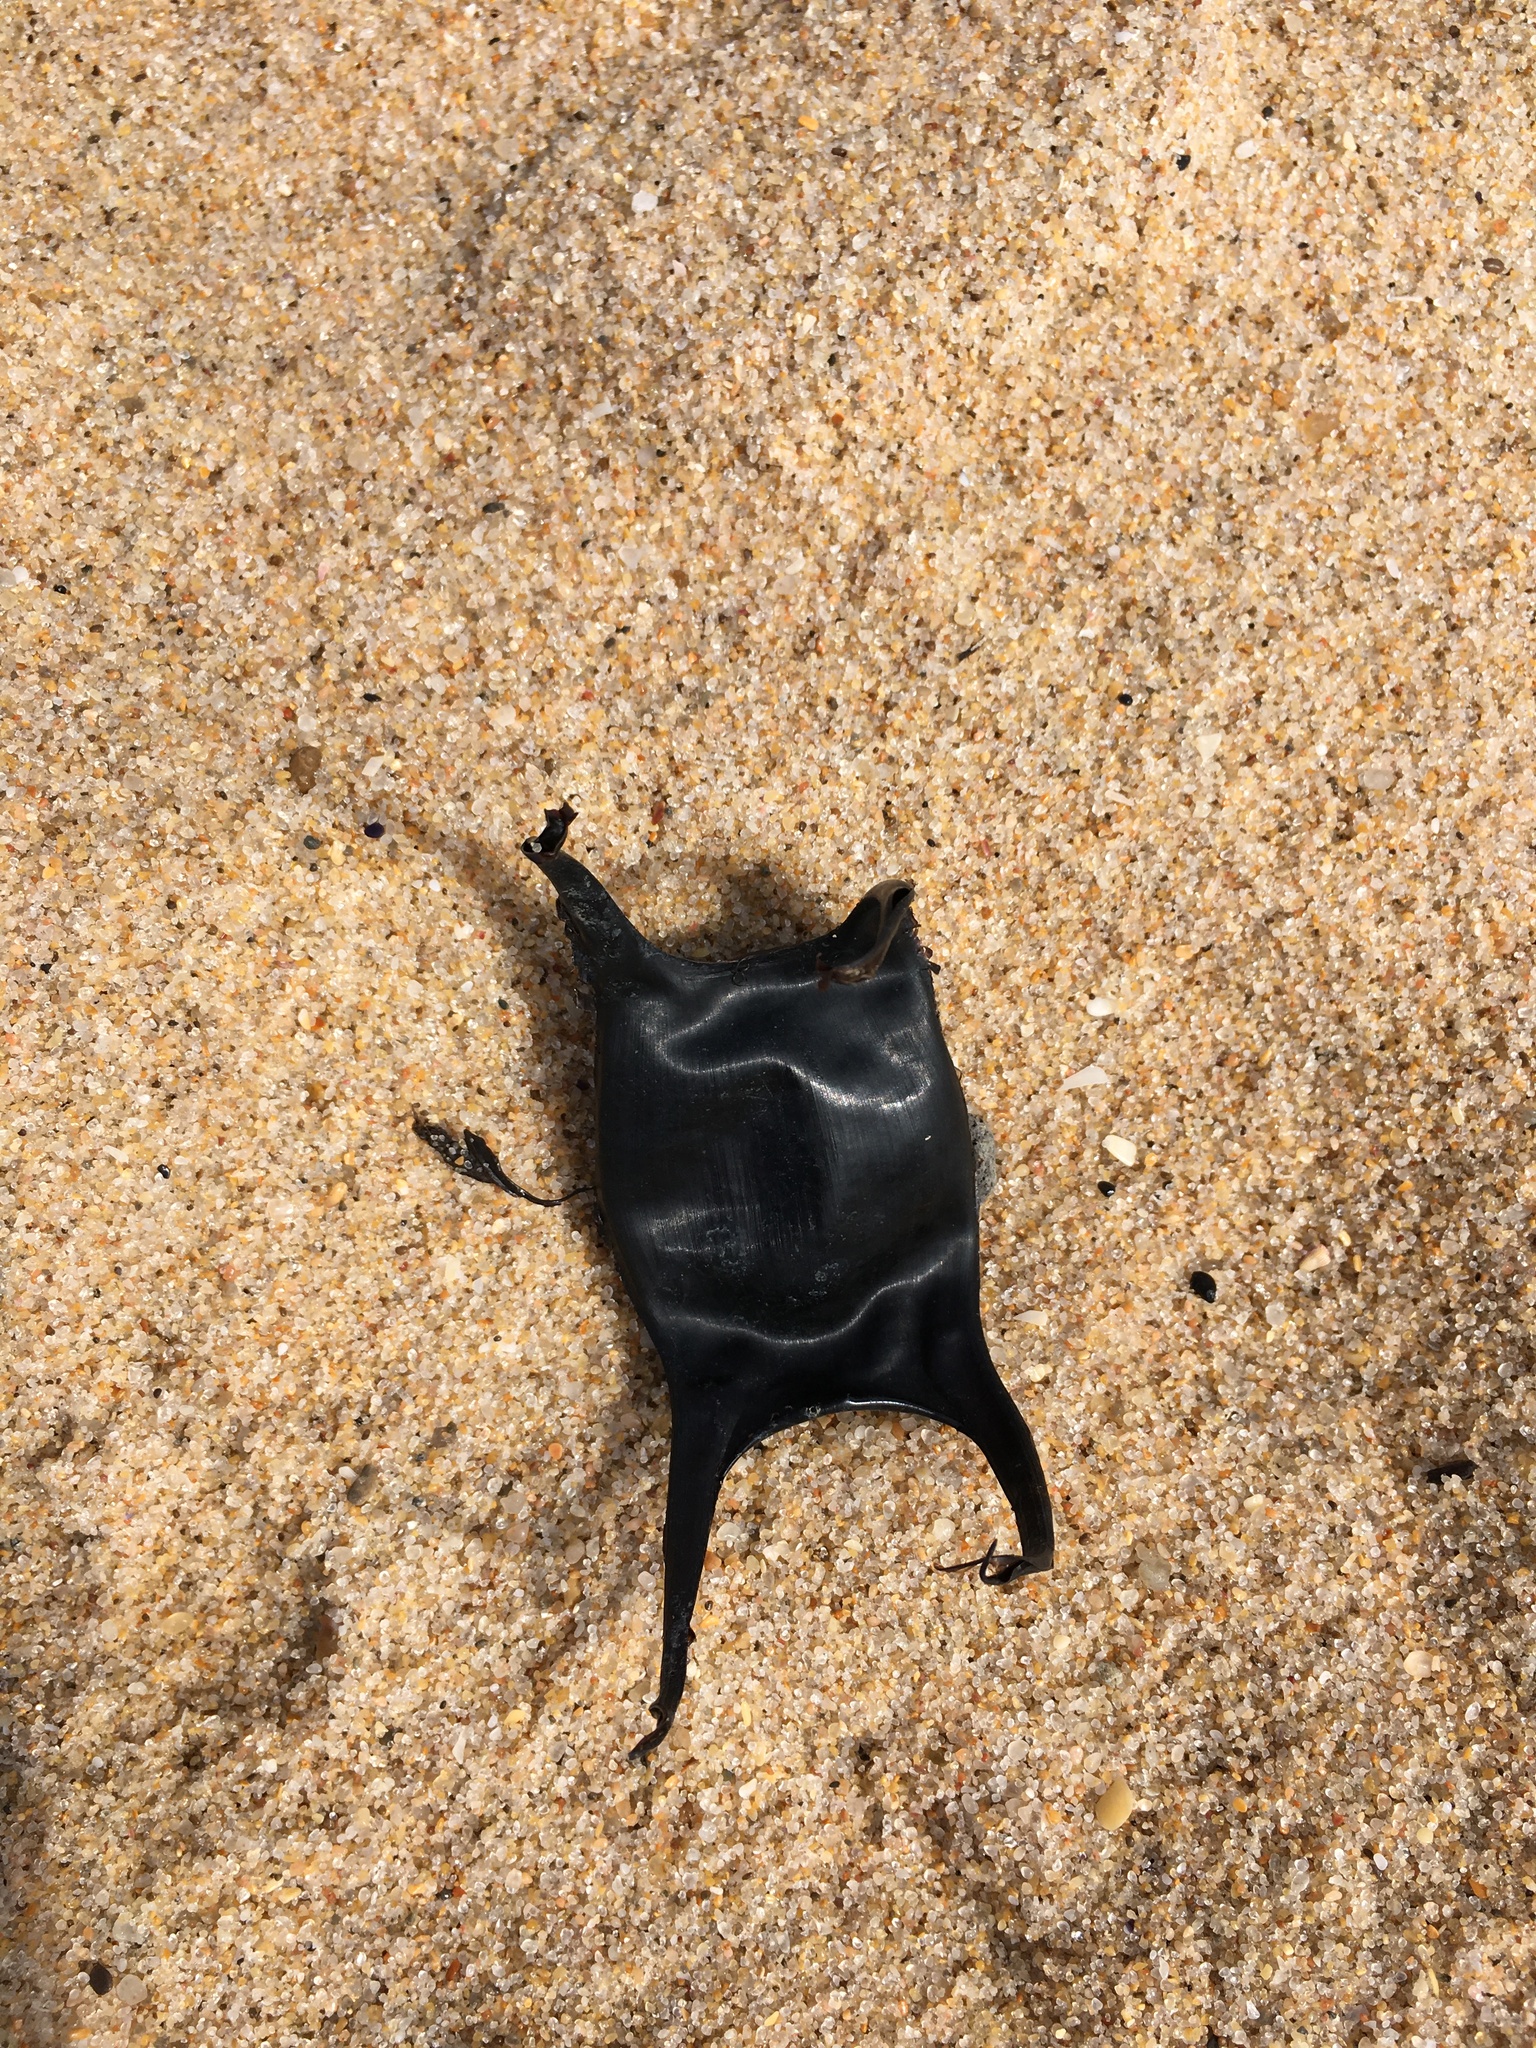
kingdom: Animalia
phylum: Chordata
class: Elasmobranchii
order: Rajiformes
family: Rajidae
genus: Raja
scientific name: Raja undulata
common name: Undulate ray
